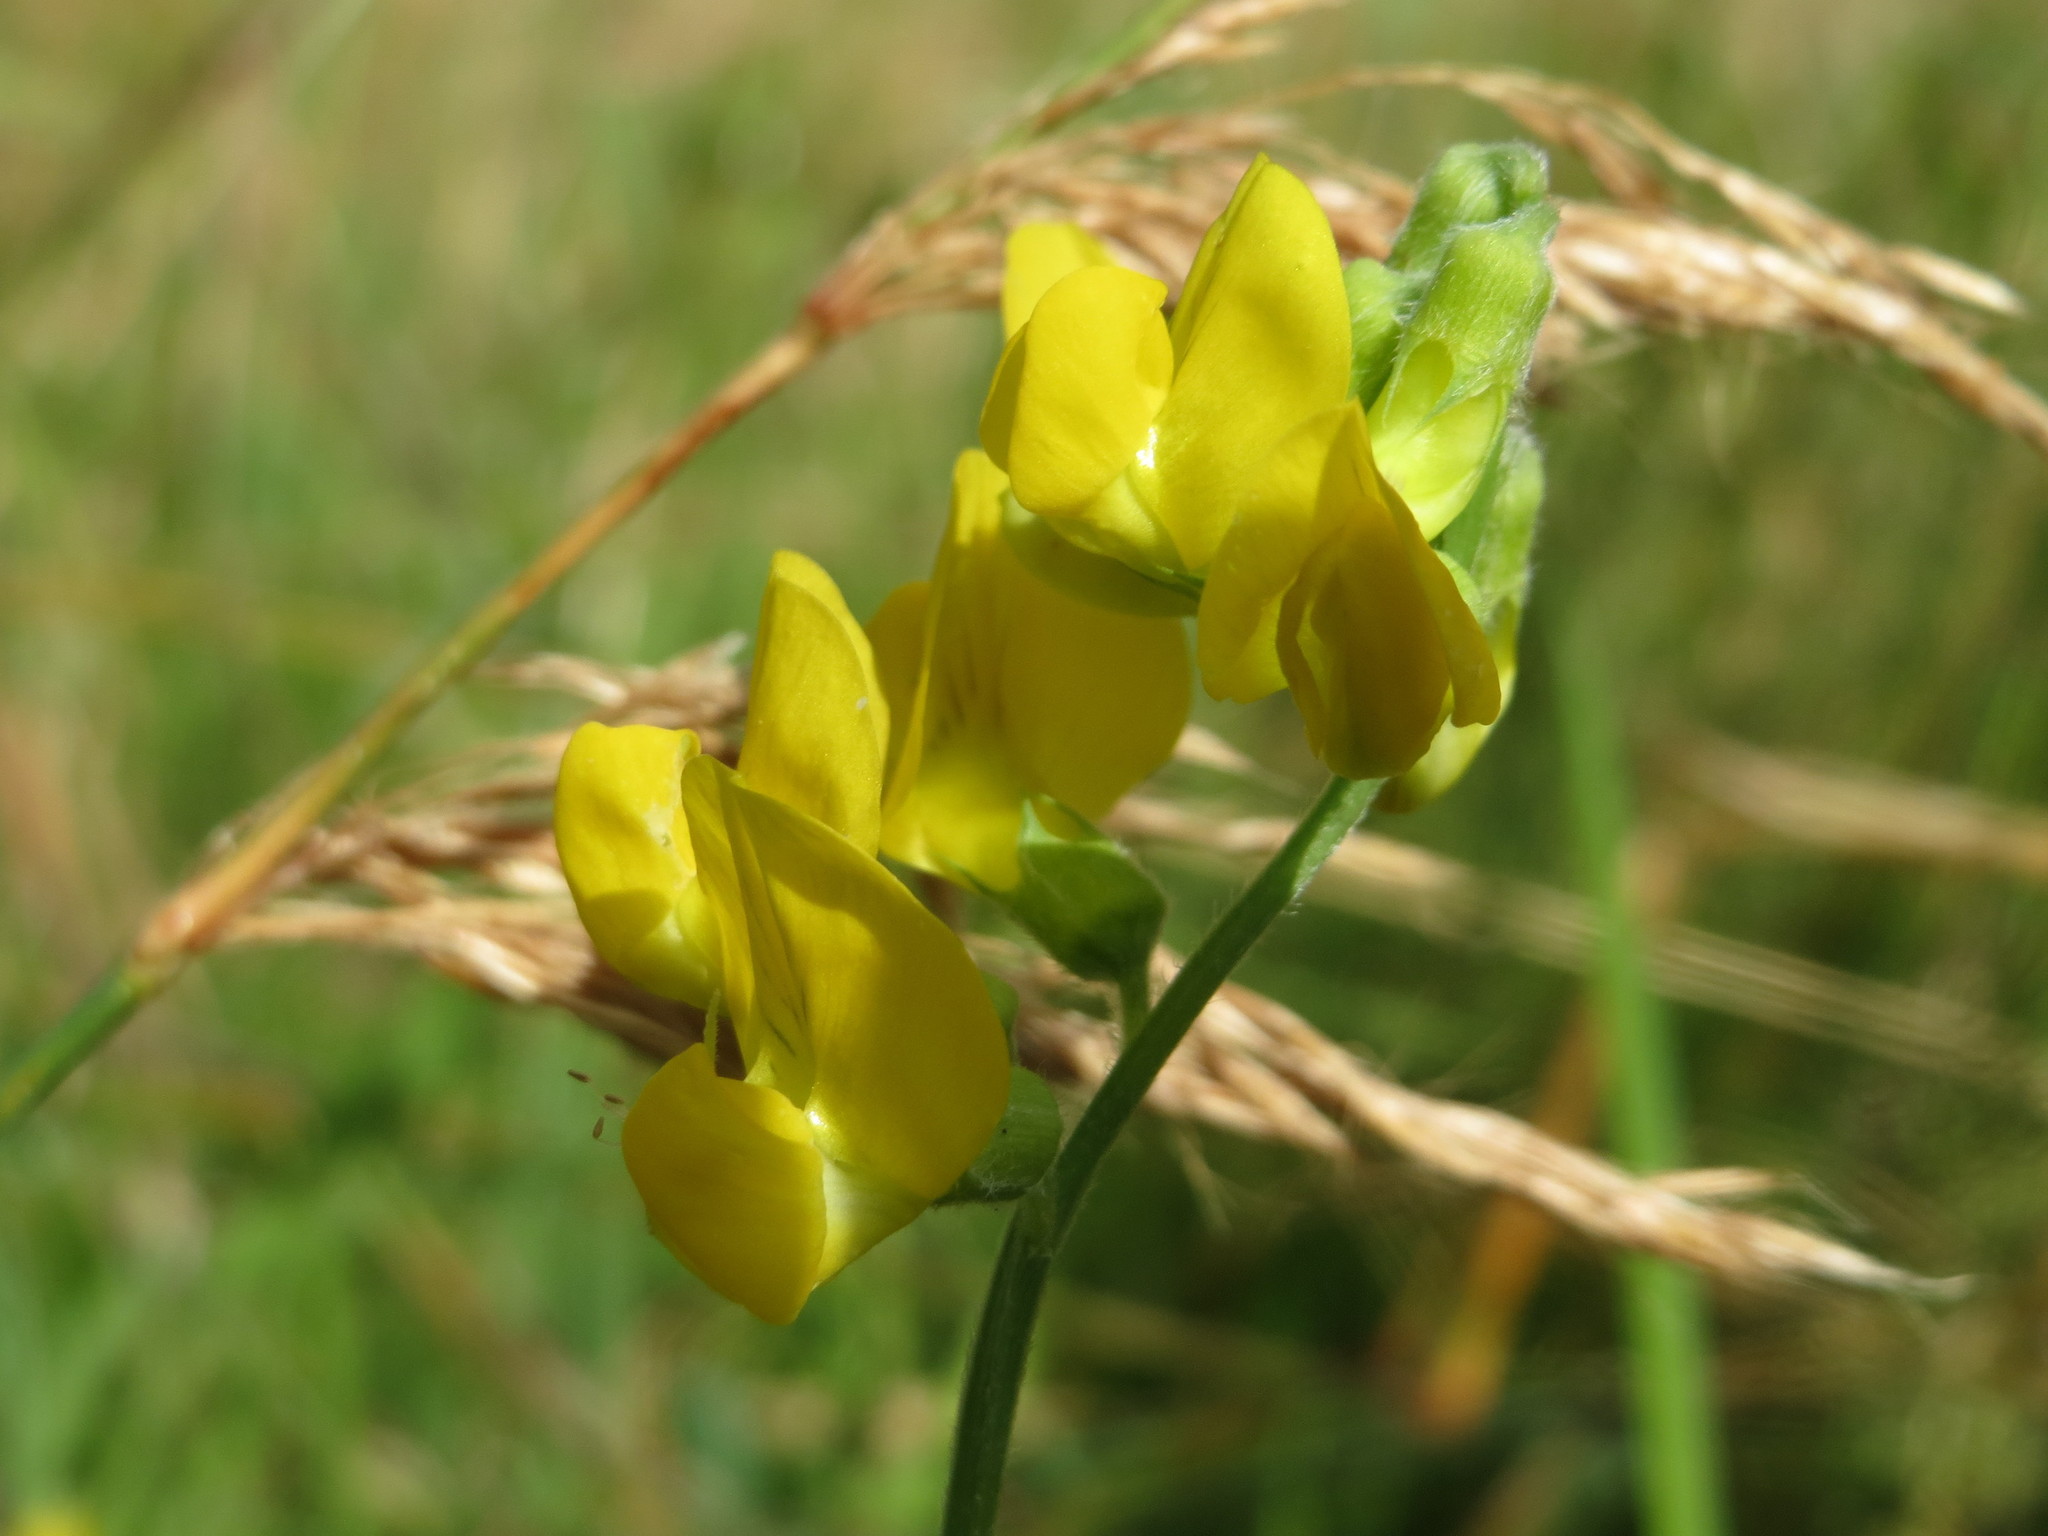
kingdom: Plantae
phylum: Tracheophyta
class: Magnoliopsida
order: Fabales
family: Fabaceae
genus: Lathyrus
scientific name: Lathyrus pratensis
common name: Meadow vetchling
